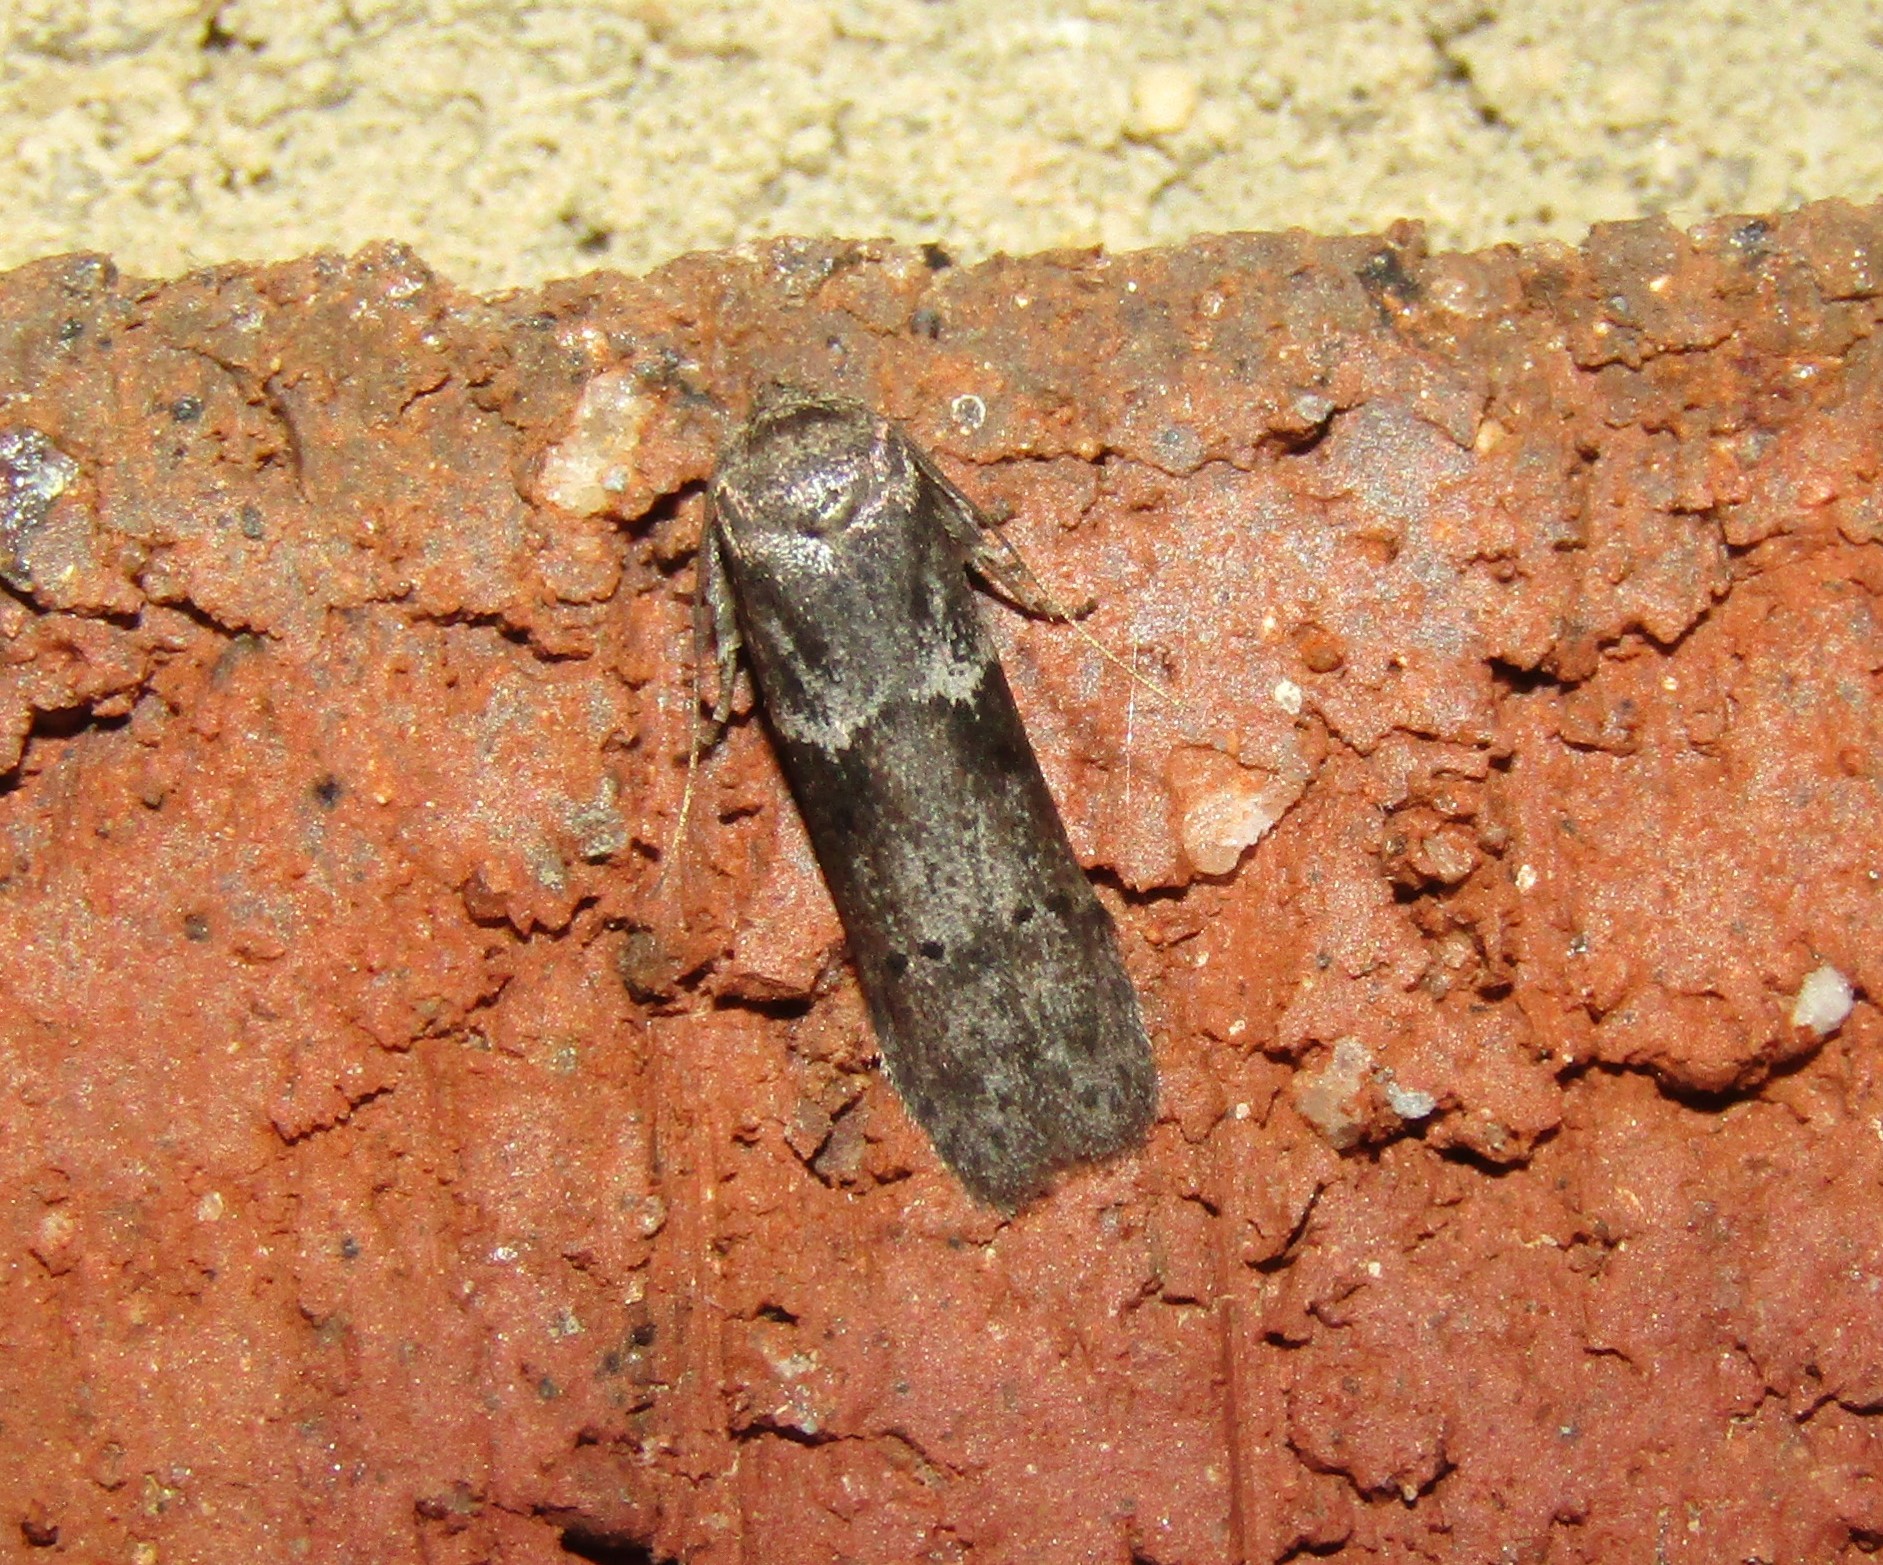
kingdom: Animalia
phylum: Arthropoda
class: Insecta
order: Lepidoptera
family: Blastobasidae
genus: Blastobasis
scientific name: Blastobasis glandulella
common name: Acorn moth
